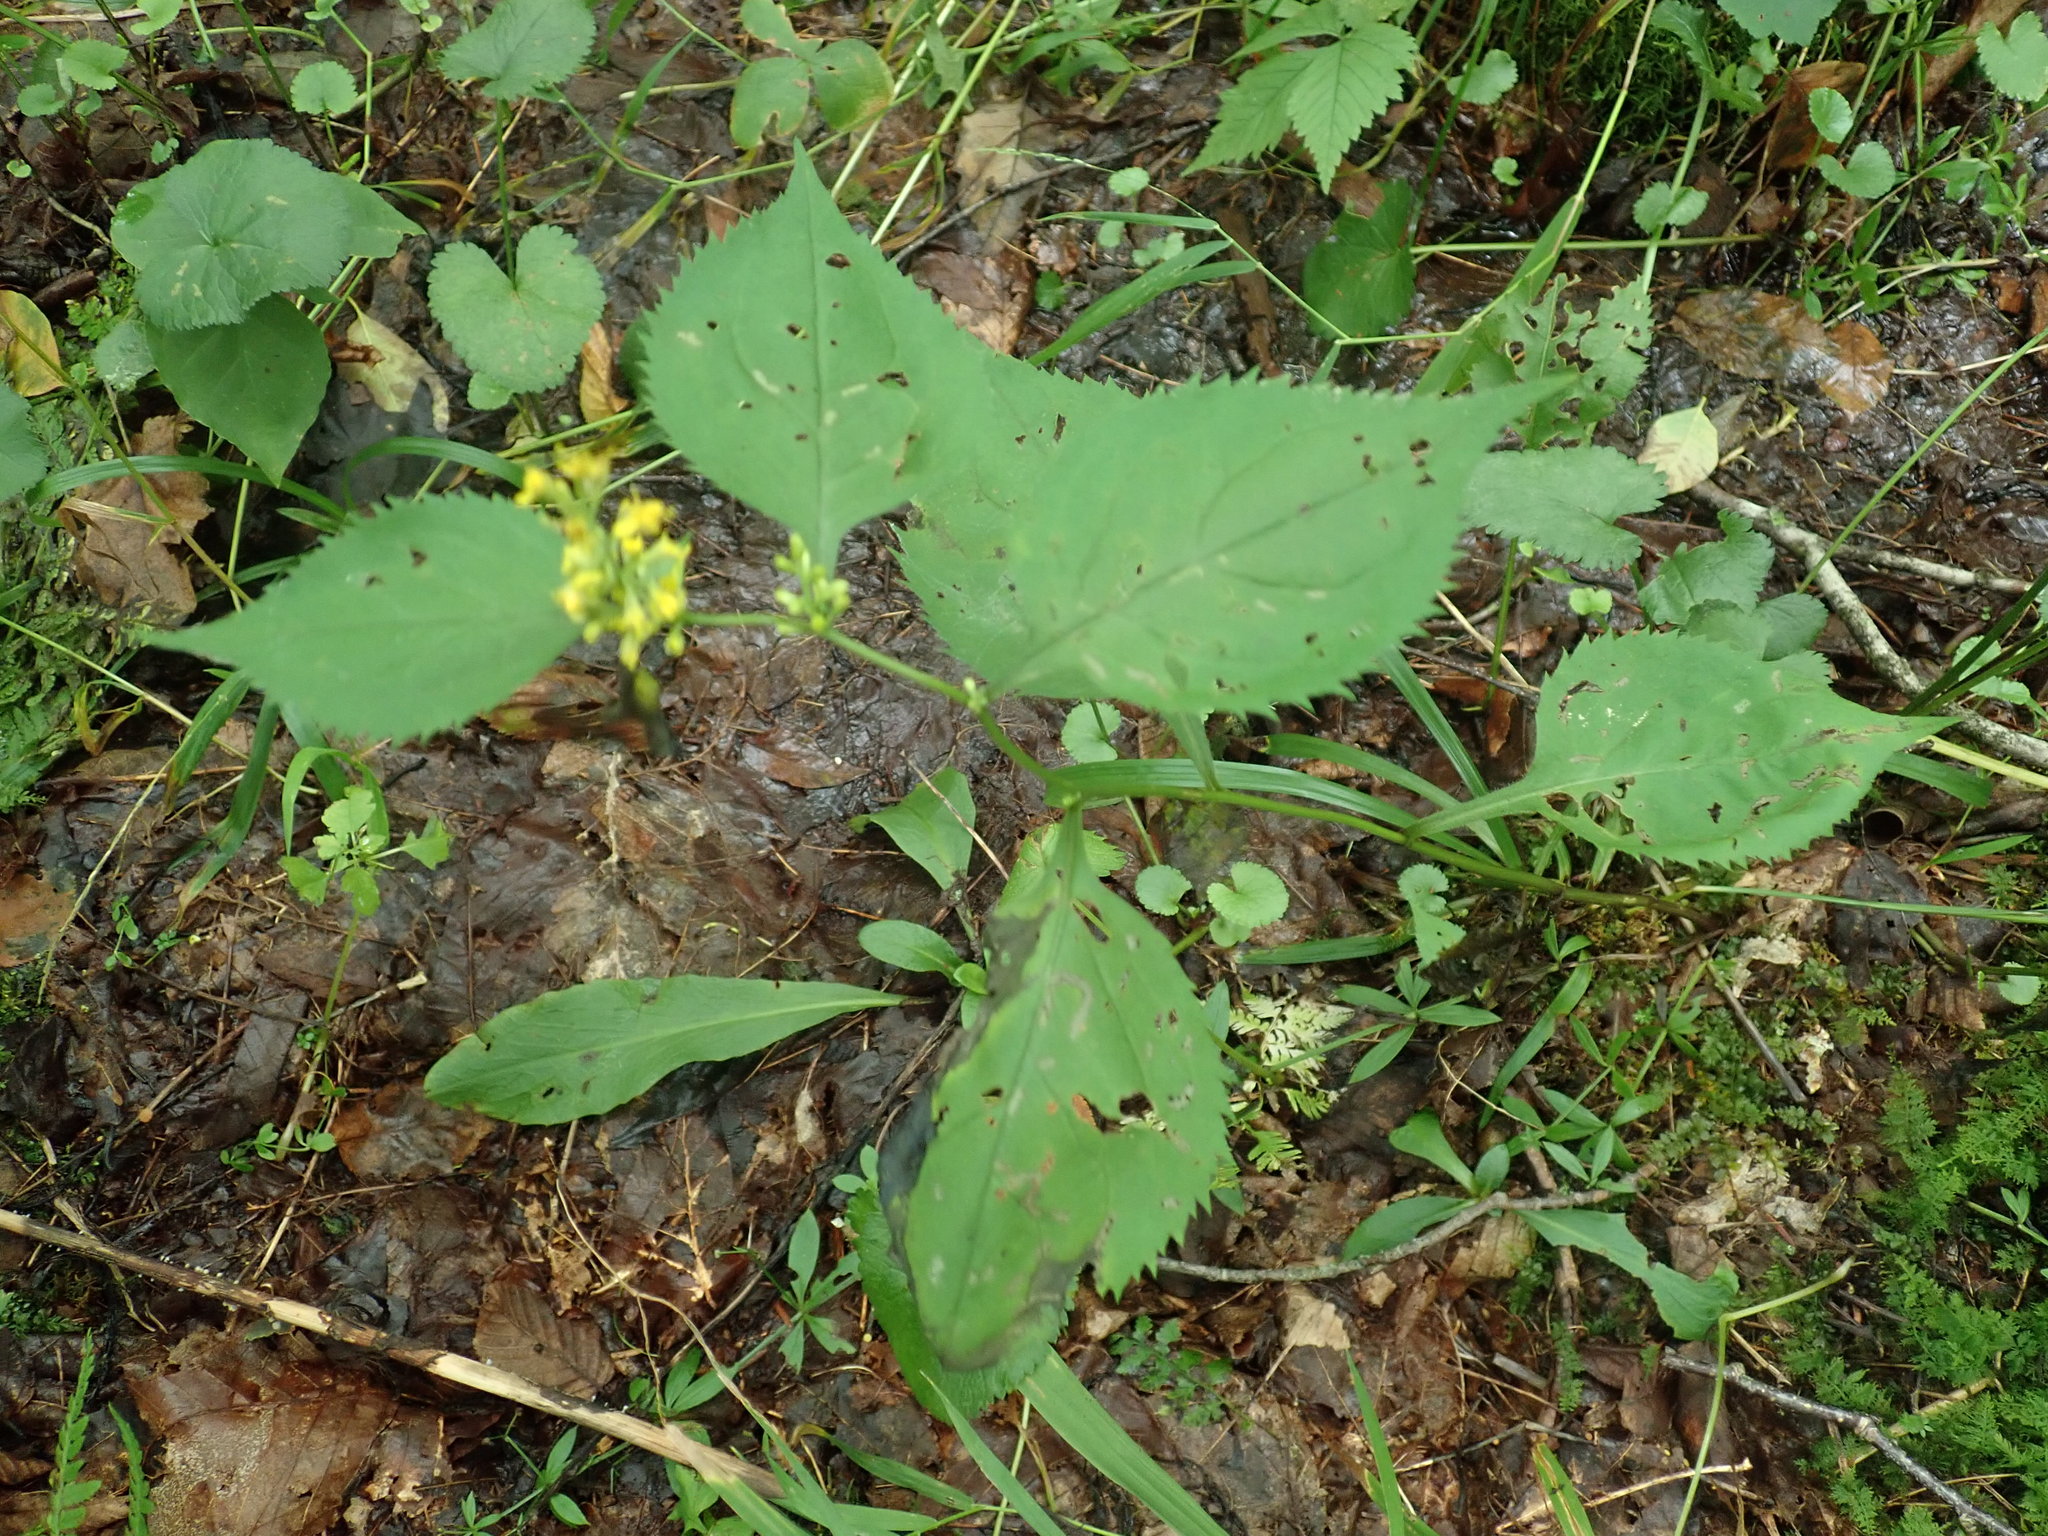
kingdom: Plantae
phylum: Tracheophyta
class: Magnoliopsida
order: Asterales
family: Asteraceae
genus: Solidago
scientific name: Solidago flexicaulis
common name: Zig-zag goldenrod
